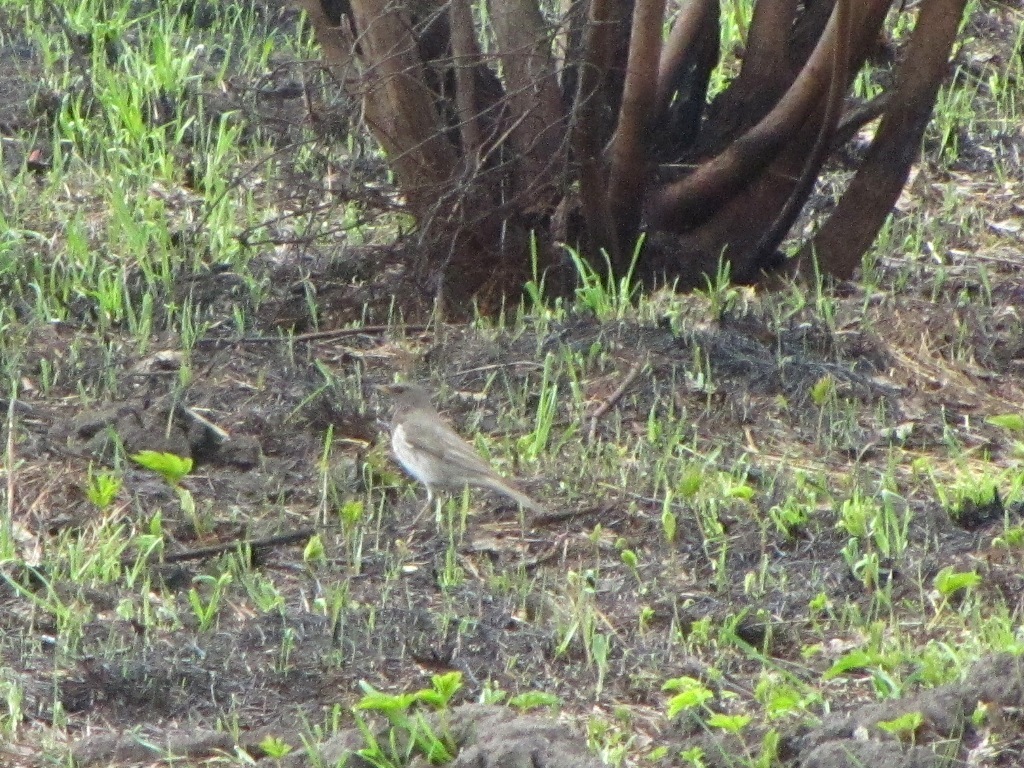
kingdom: Animalia
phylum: Chordata
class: Aves
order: Passeriformes
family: Turdidae
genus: Turdus
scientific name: Turdus atrogularis
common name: Black-throated thrush
